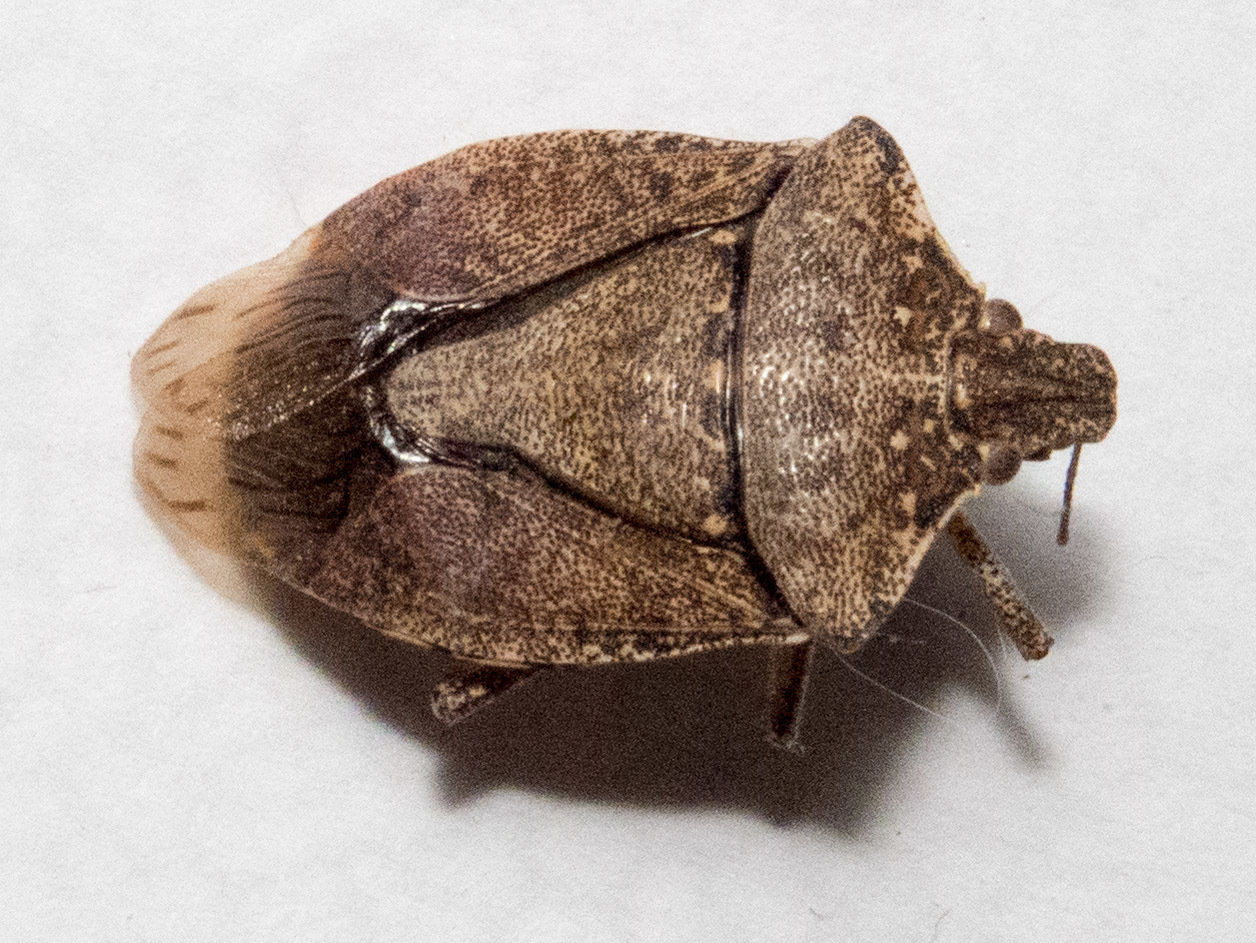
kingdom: Animalia
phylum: Arthropoda
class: Insecta
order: Hemiptera
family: Pentatomidae
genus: Halyomorpha
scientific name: Halyomorpha halys
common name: Brown marmorated stink bug
